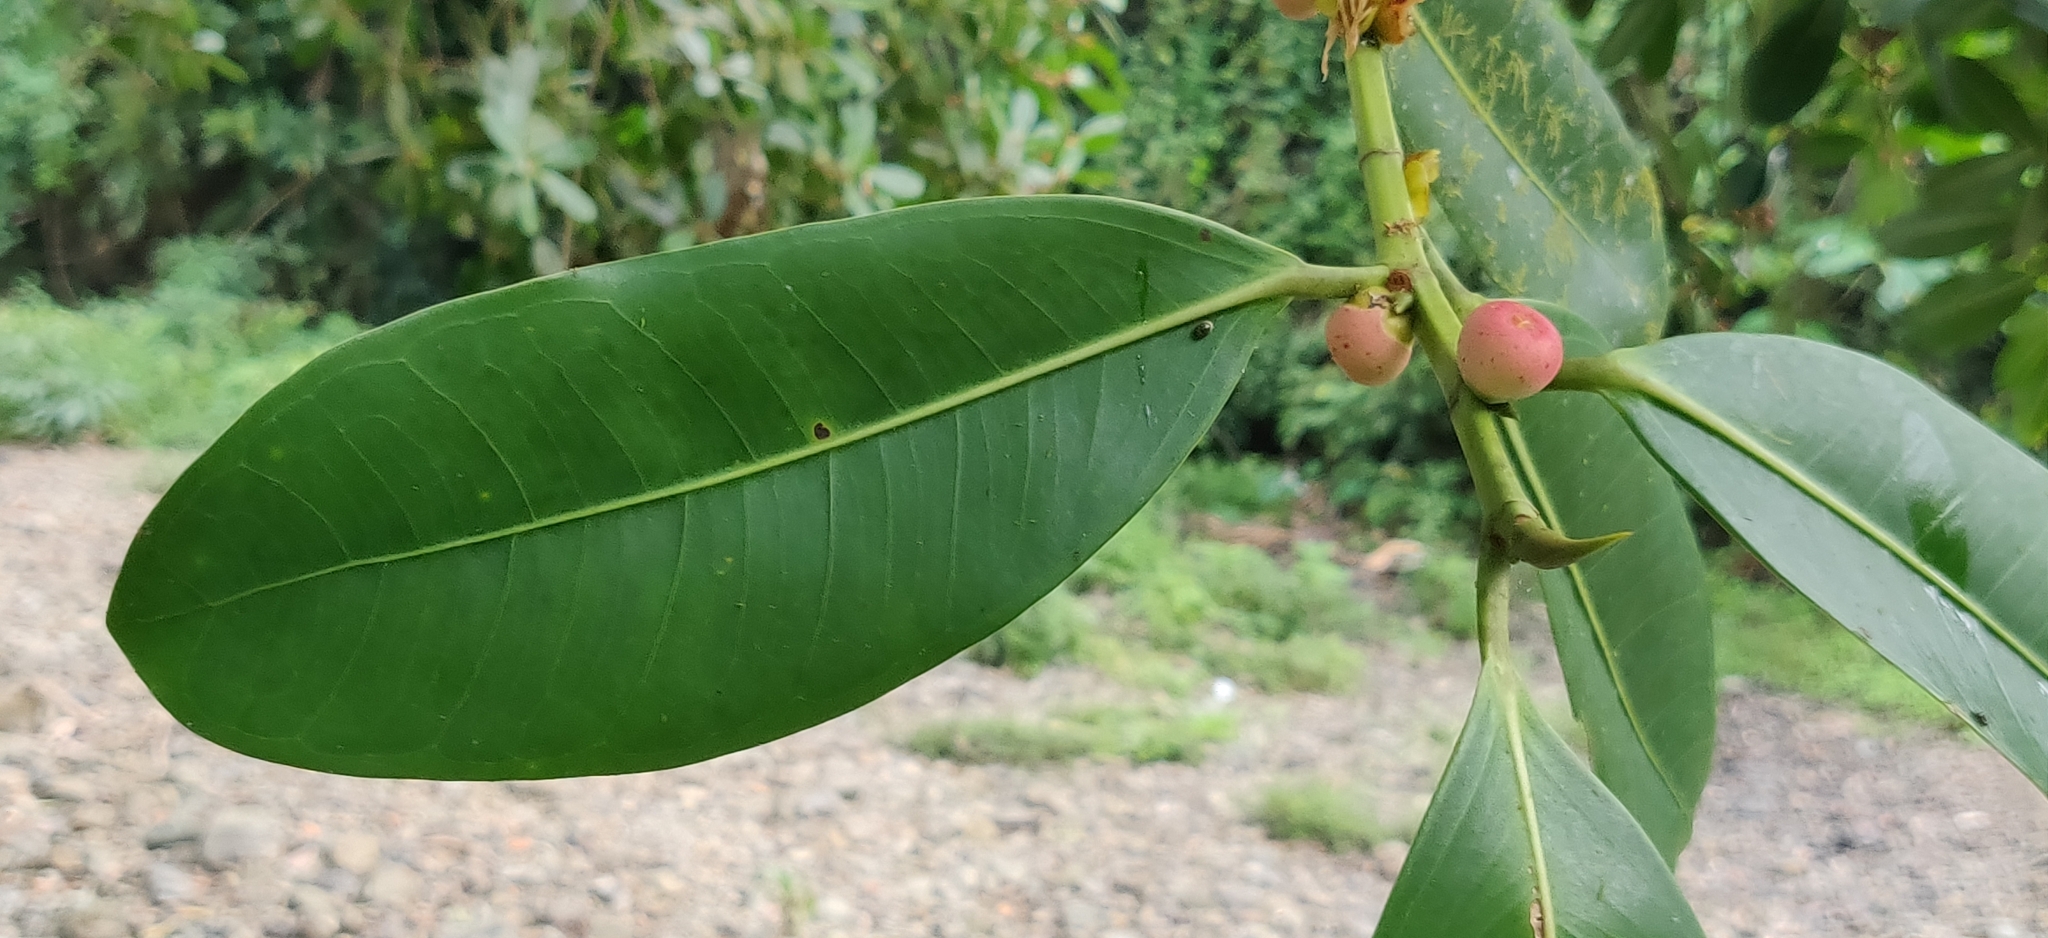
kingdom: Plantae
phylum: Tracheophyta
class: Magnoliopsida
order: Rosales
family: Moraceae
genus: Ficus
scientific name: Ficus obtusifolia
